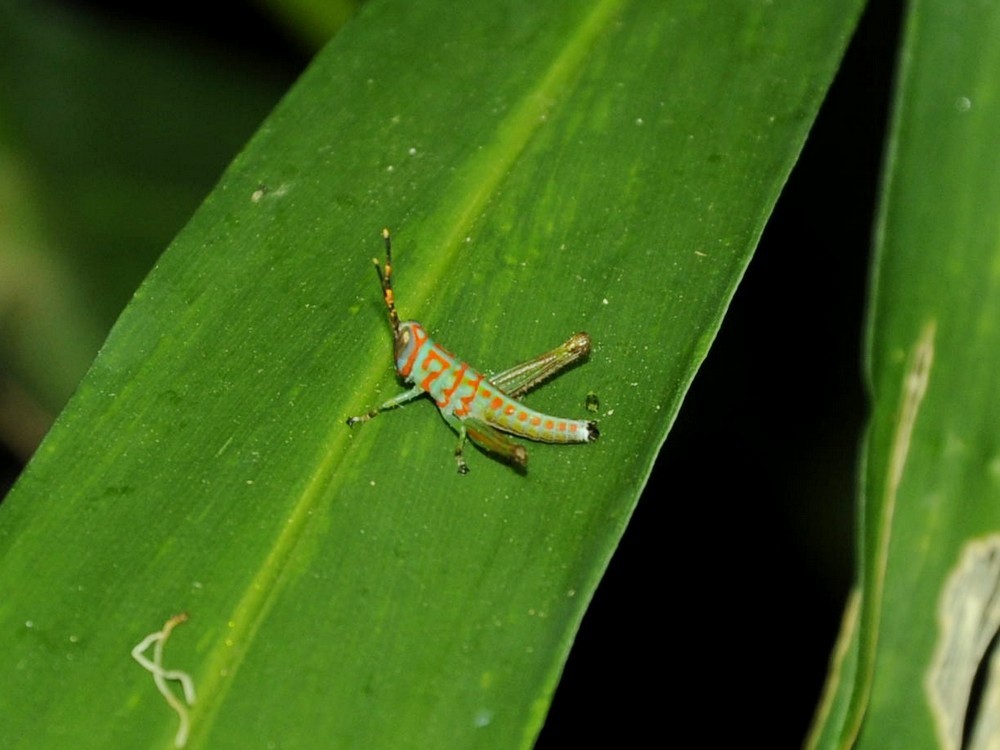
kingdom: Animalia
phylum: Arthropoda
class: Insecta
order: Orthoptera
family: Acrididae
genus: Pirithoicus
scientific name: Pirithoicus ophthalmicus
